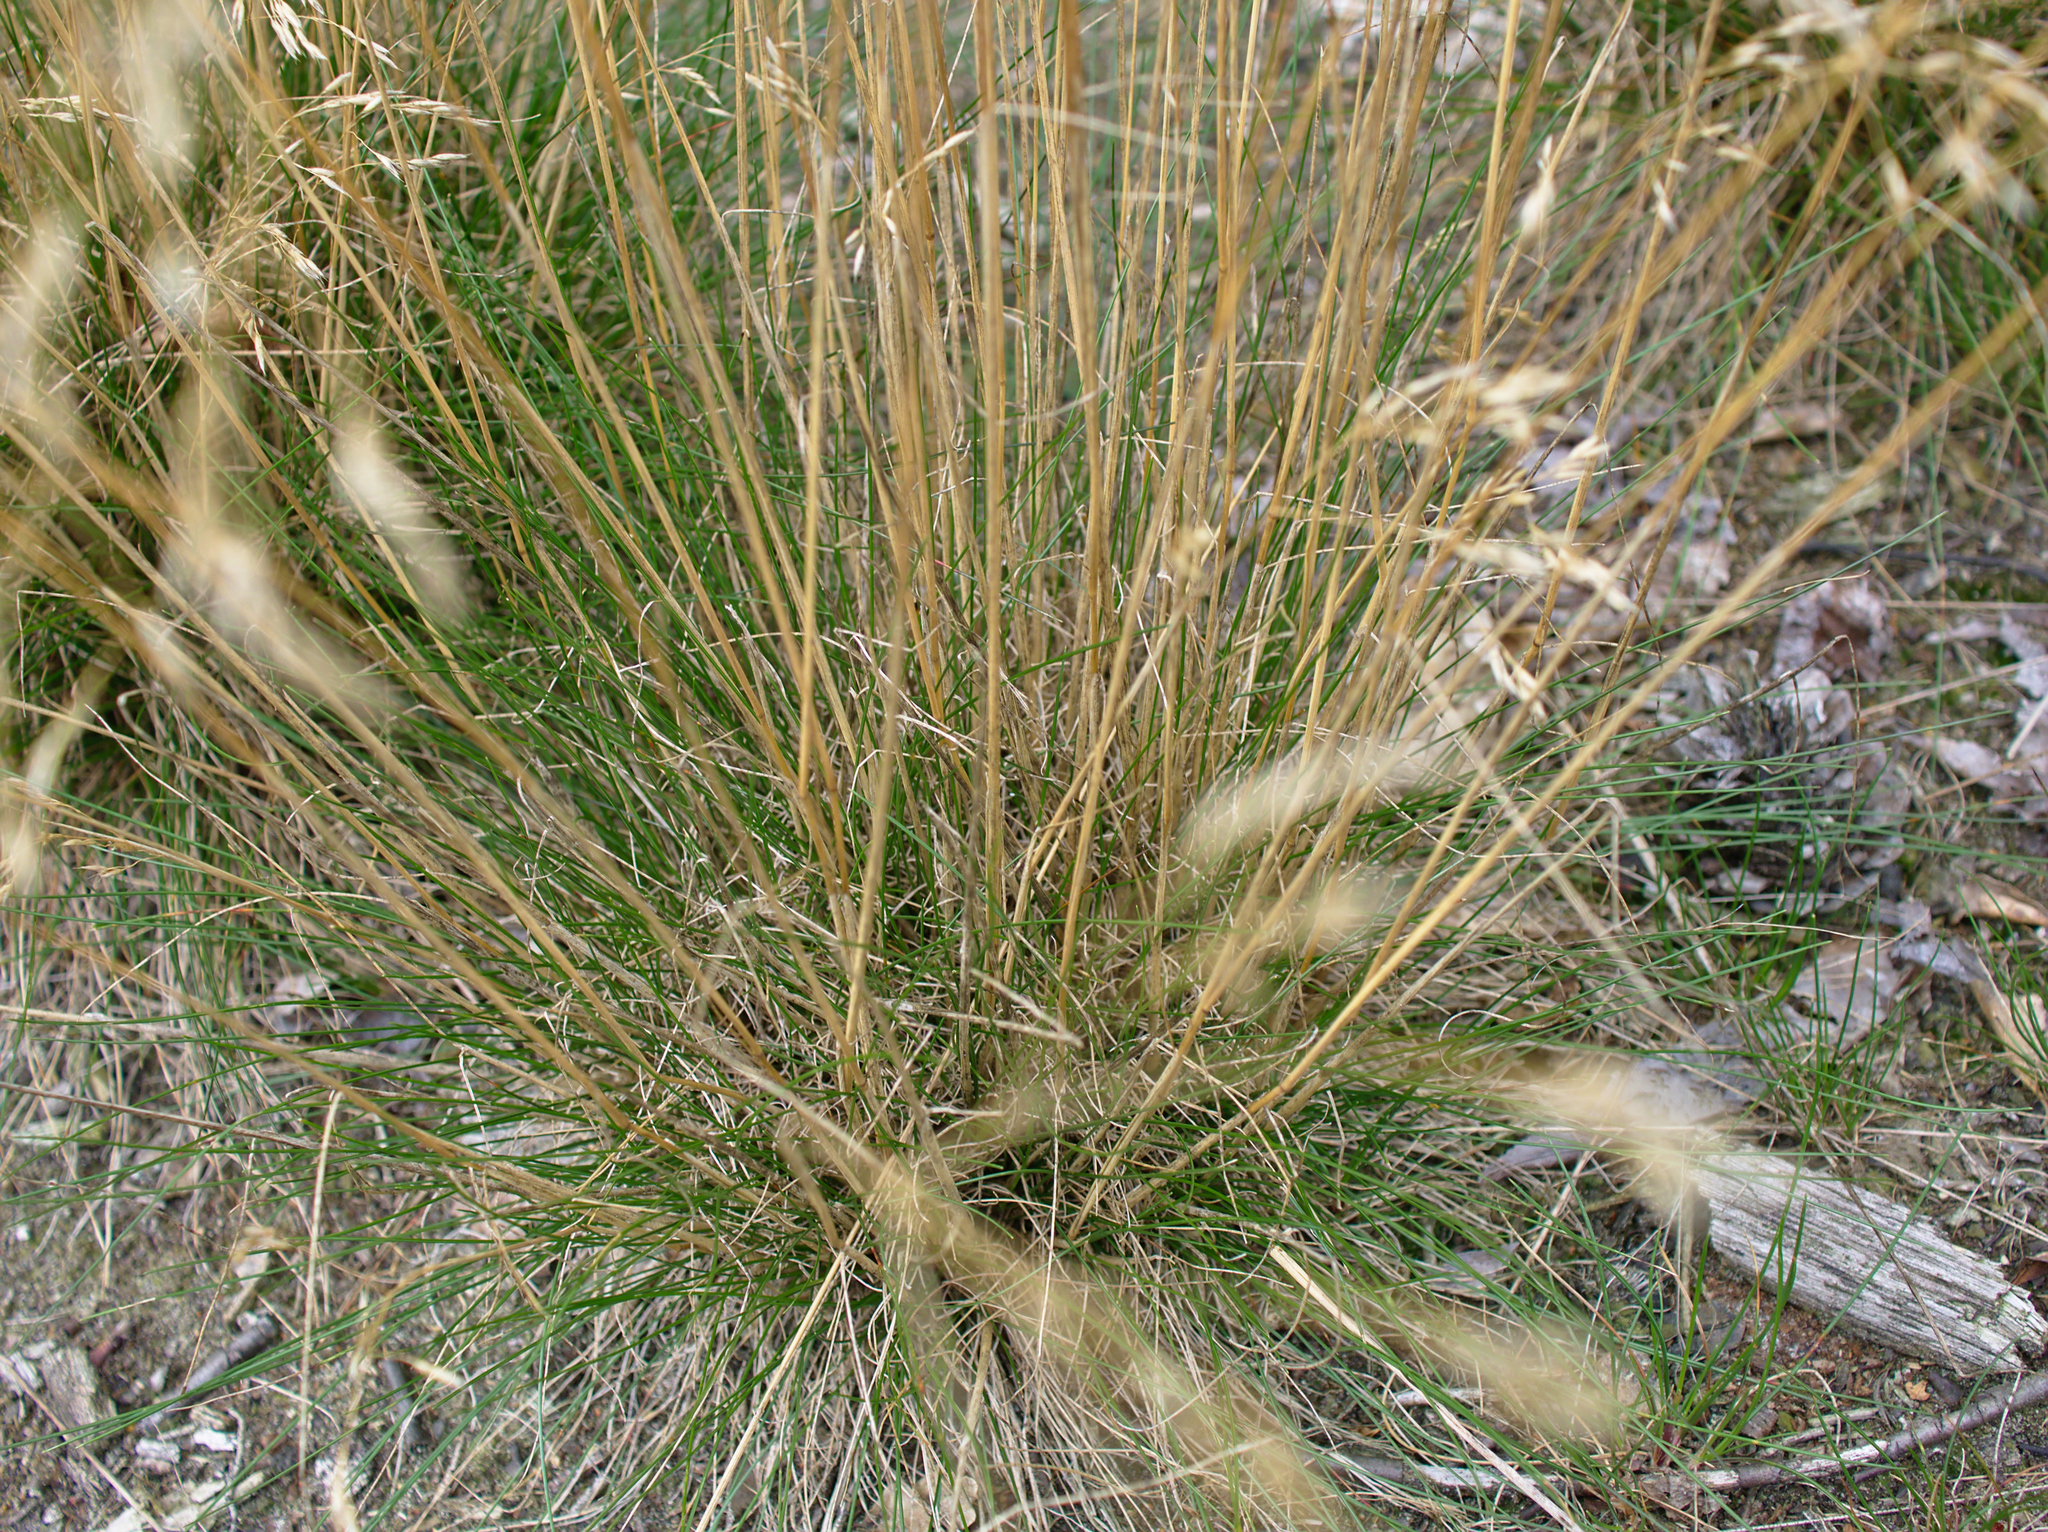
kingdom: Plantae
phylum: Tracheophyta
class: Liliopsida
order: Poales
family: Poaceae
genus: Avenella
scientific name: Avenella flexuosa
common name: Wavy hairgrass
